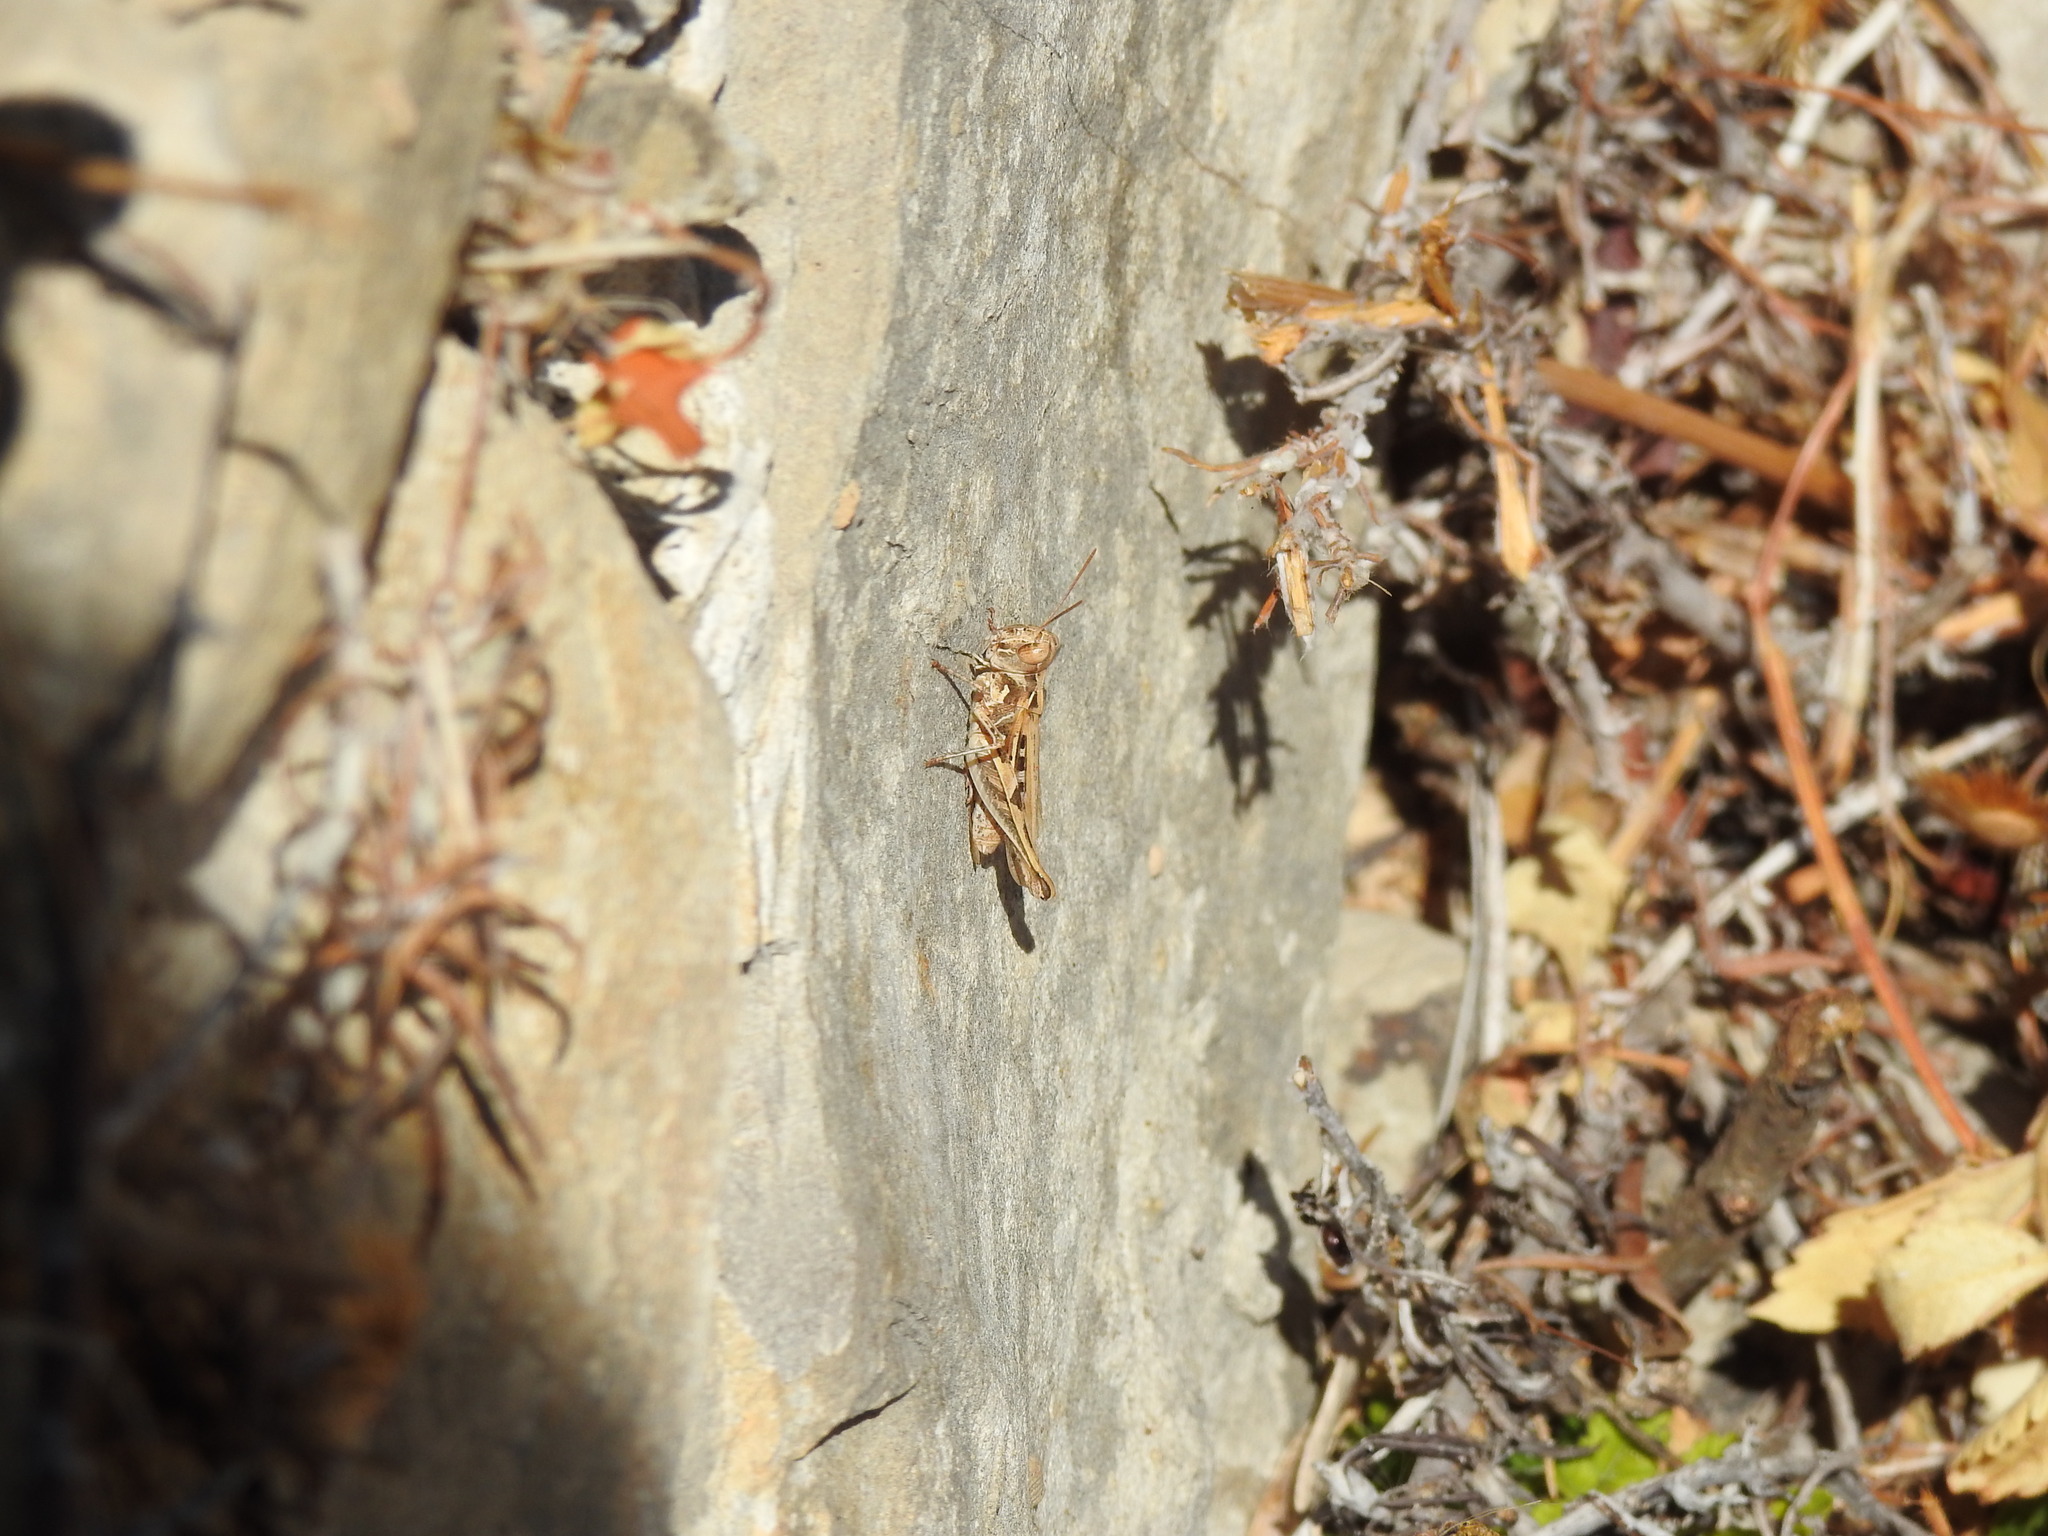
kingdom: Animalia
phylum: Arthropoda
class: Insecta
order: Orthoptera
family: Acrididae
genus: Dociostaurus
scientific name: Dociostaurus jagoi
